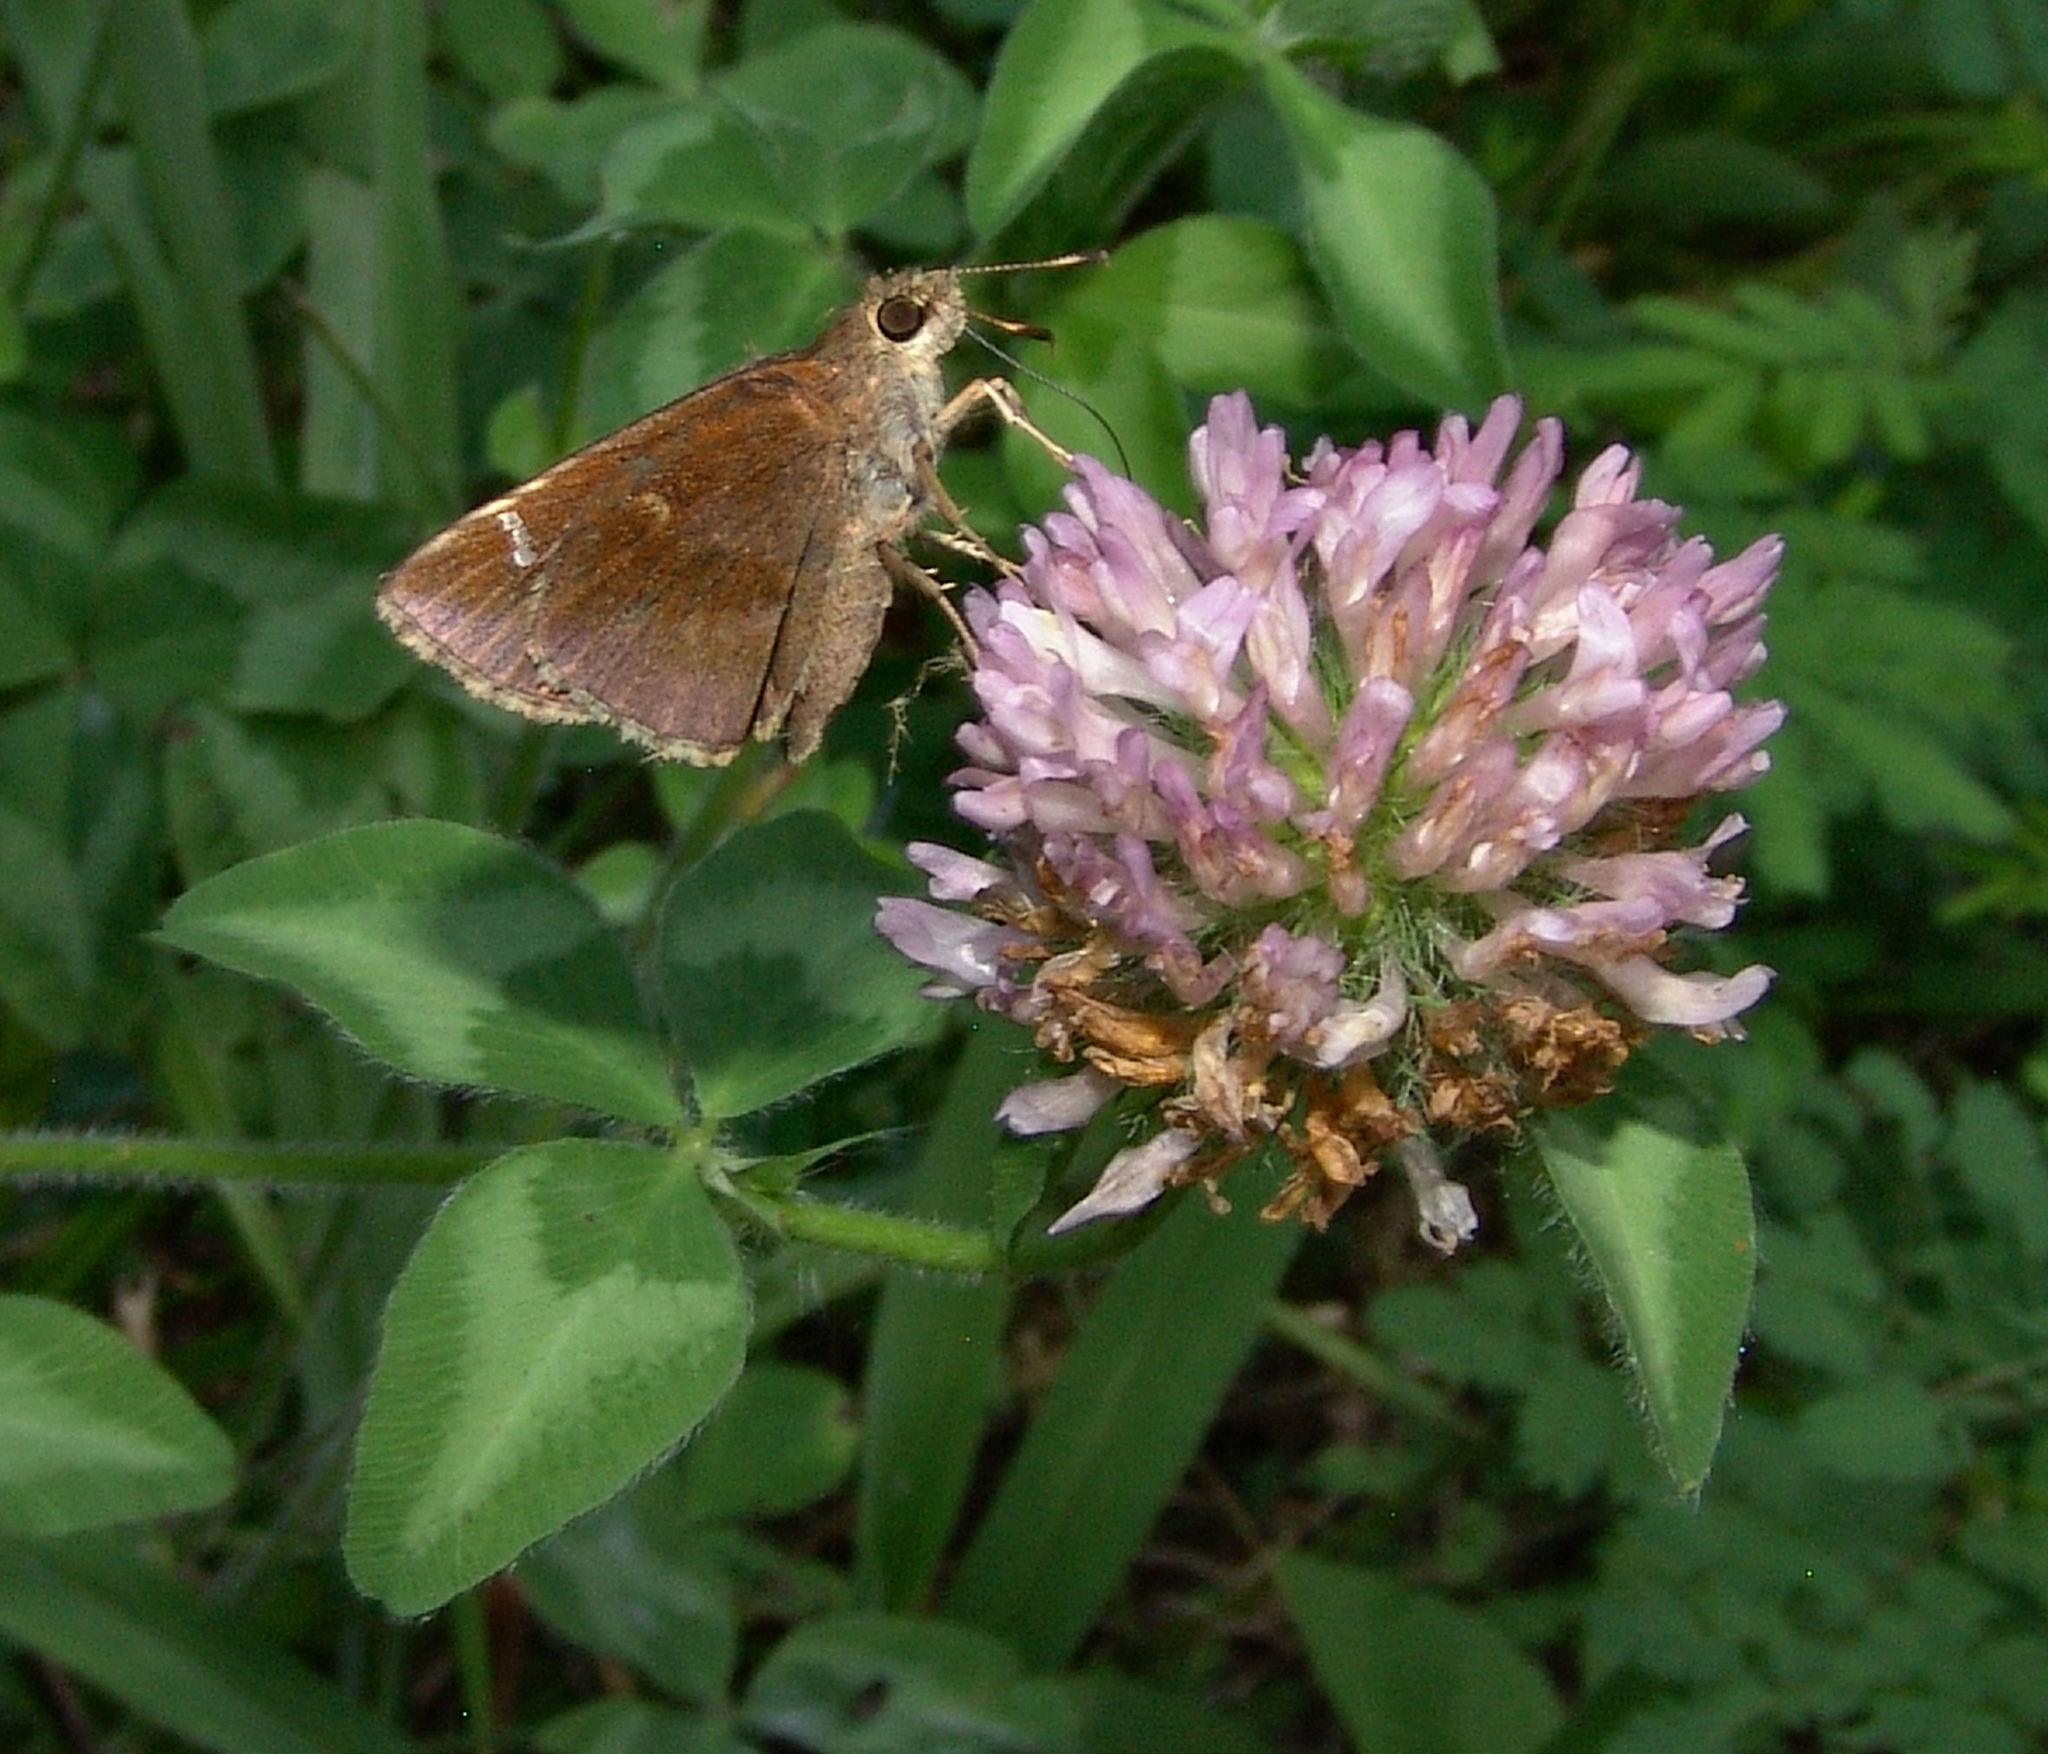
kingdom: Animalia
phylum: Arthropoda
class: Insecta
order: Lepidoptera
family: Hesperiidae
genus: Lerema
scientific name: Lerema accius
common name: Clouded skipper
